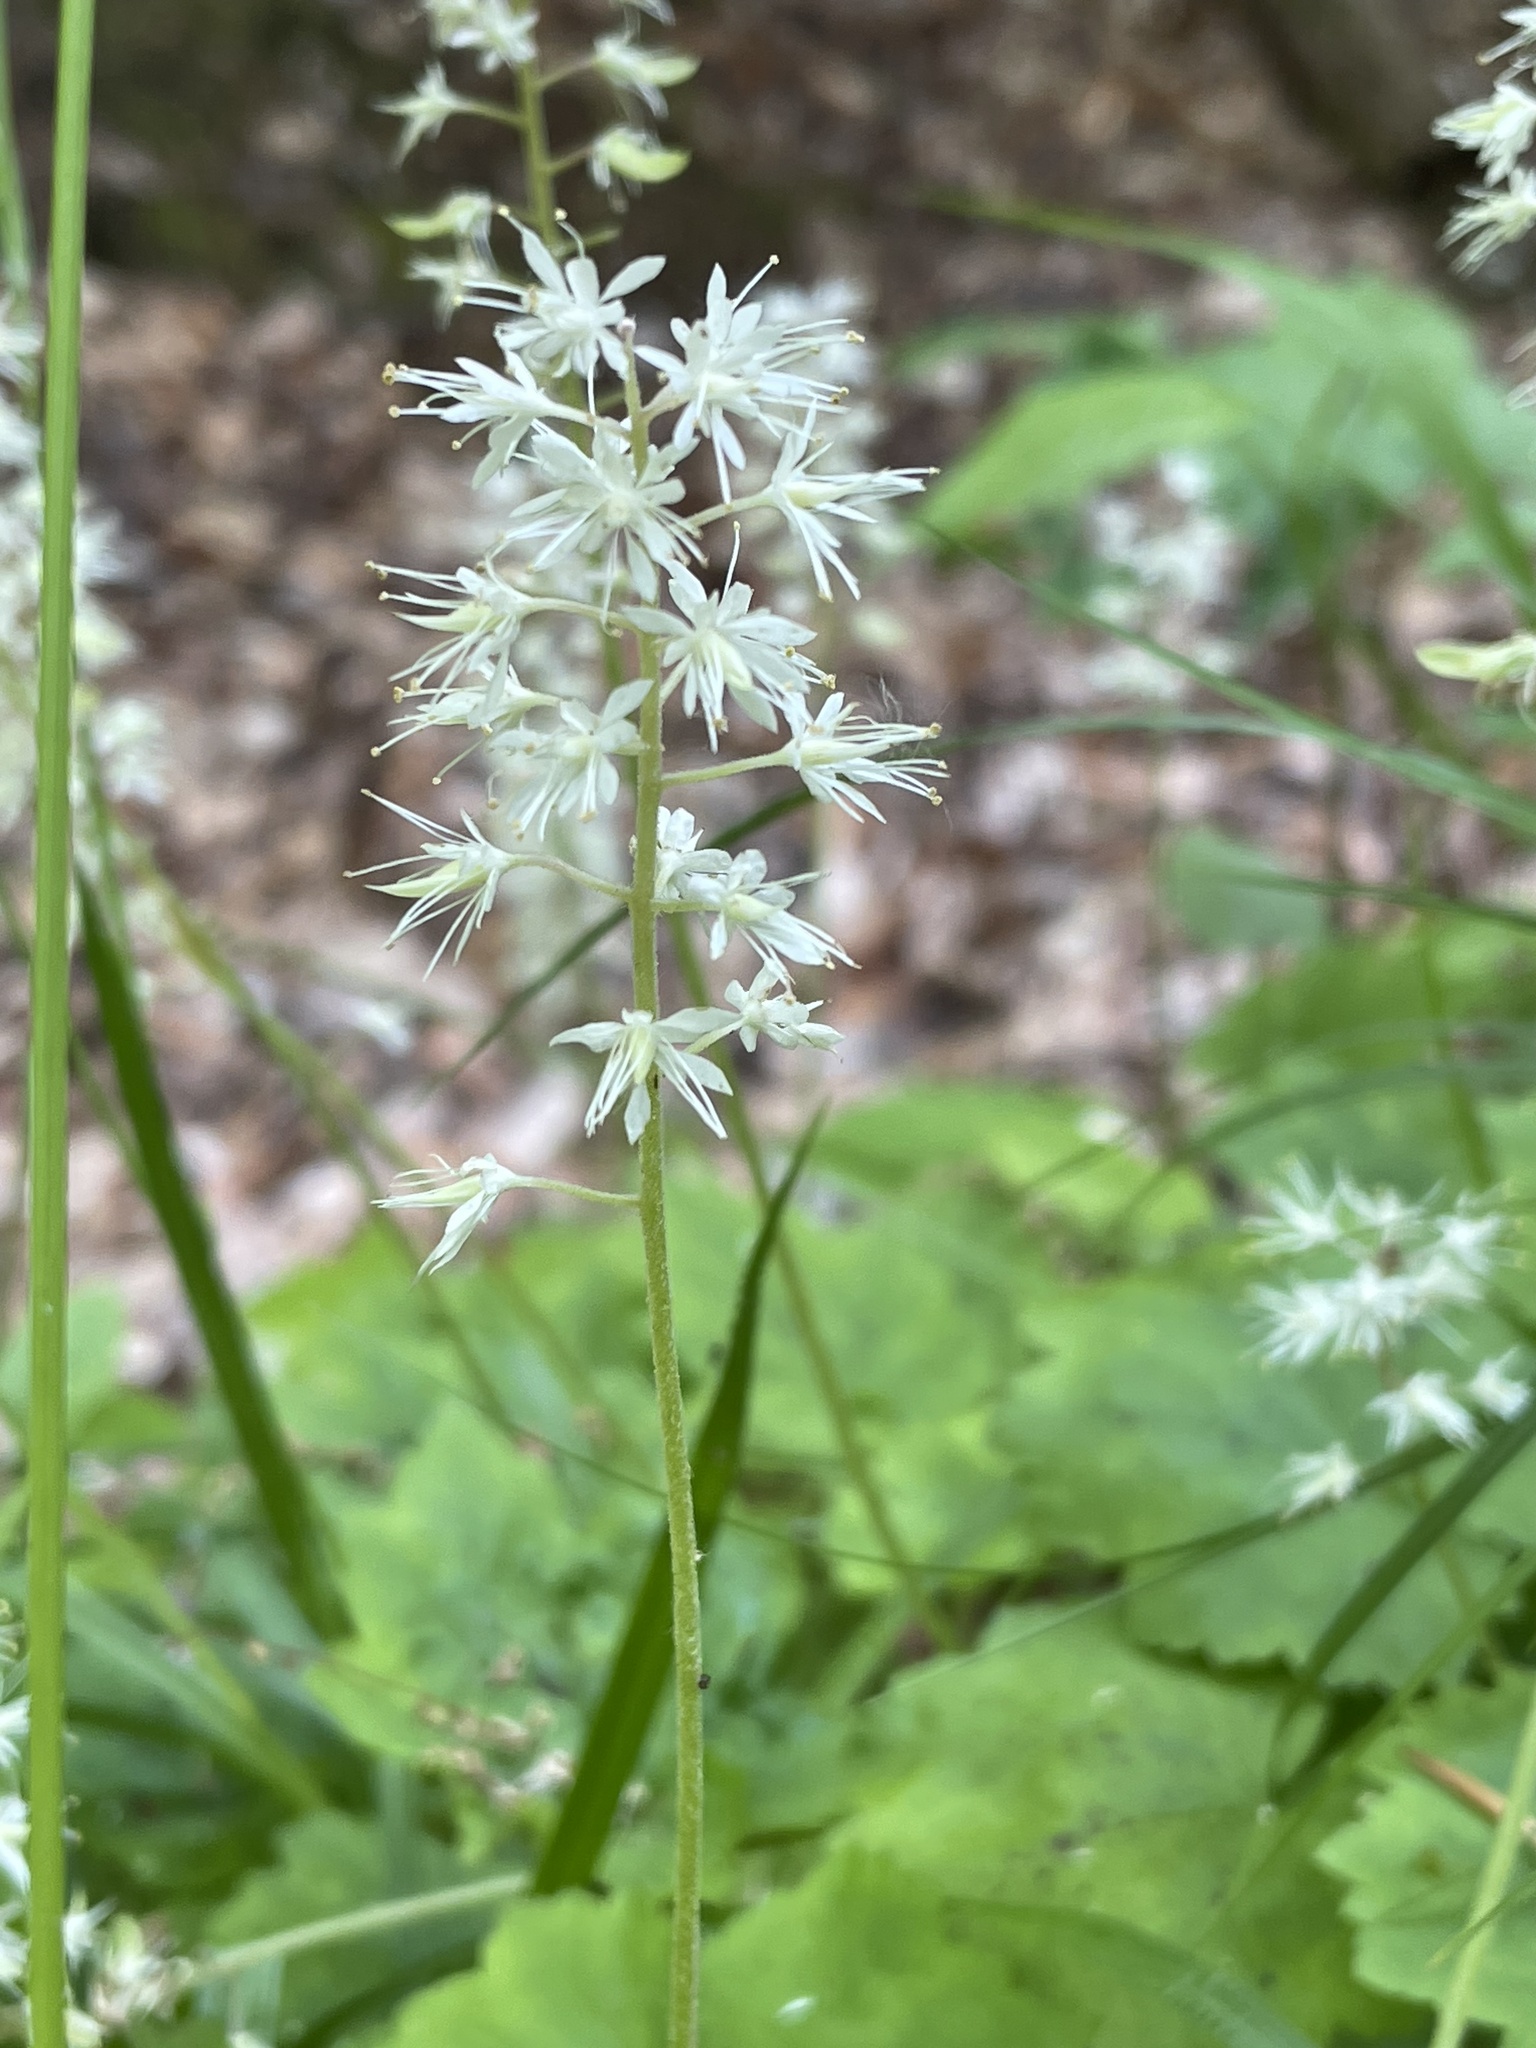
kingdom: Plantae
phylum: Tracheophyta
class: Magnoliopsida
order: Saxifragales
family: Saxifragaceae
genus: Tiarella
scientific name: Tiarella stolonifera
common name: Stoloniferous foamflower
